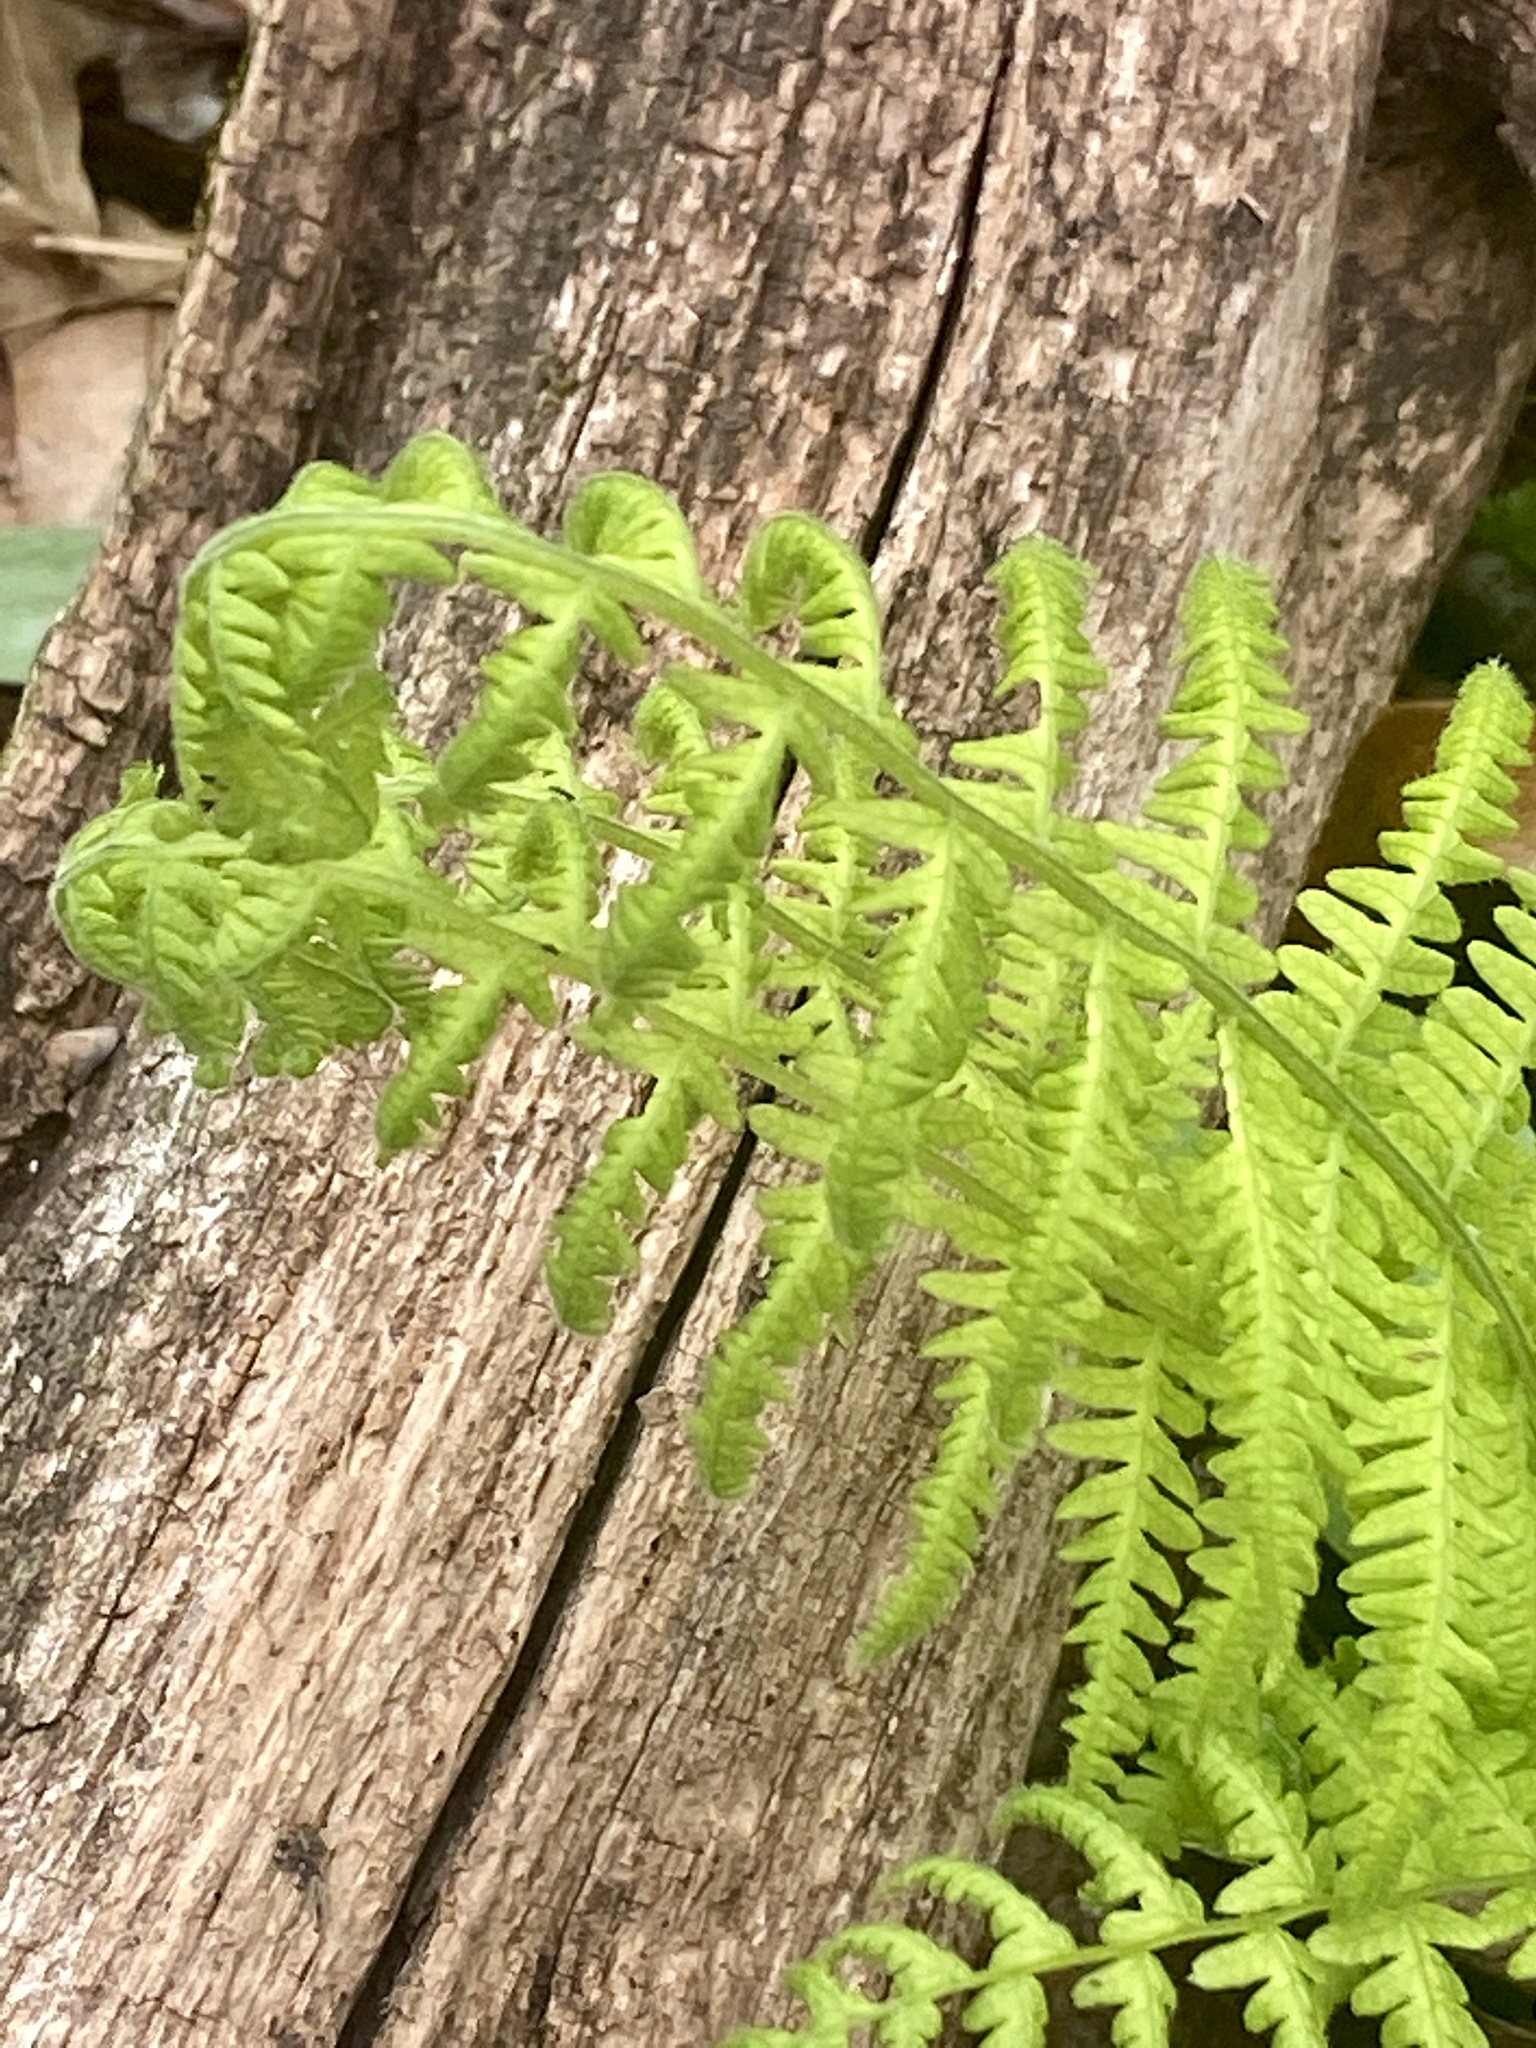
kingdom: Plantae
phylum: Tracheophyta
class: Polypodiopsida
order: Polypodiales
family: Thelypteridaceae
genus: Amauropelta
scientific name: Amauropelta noveboracensis
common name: New york fern
